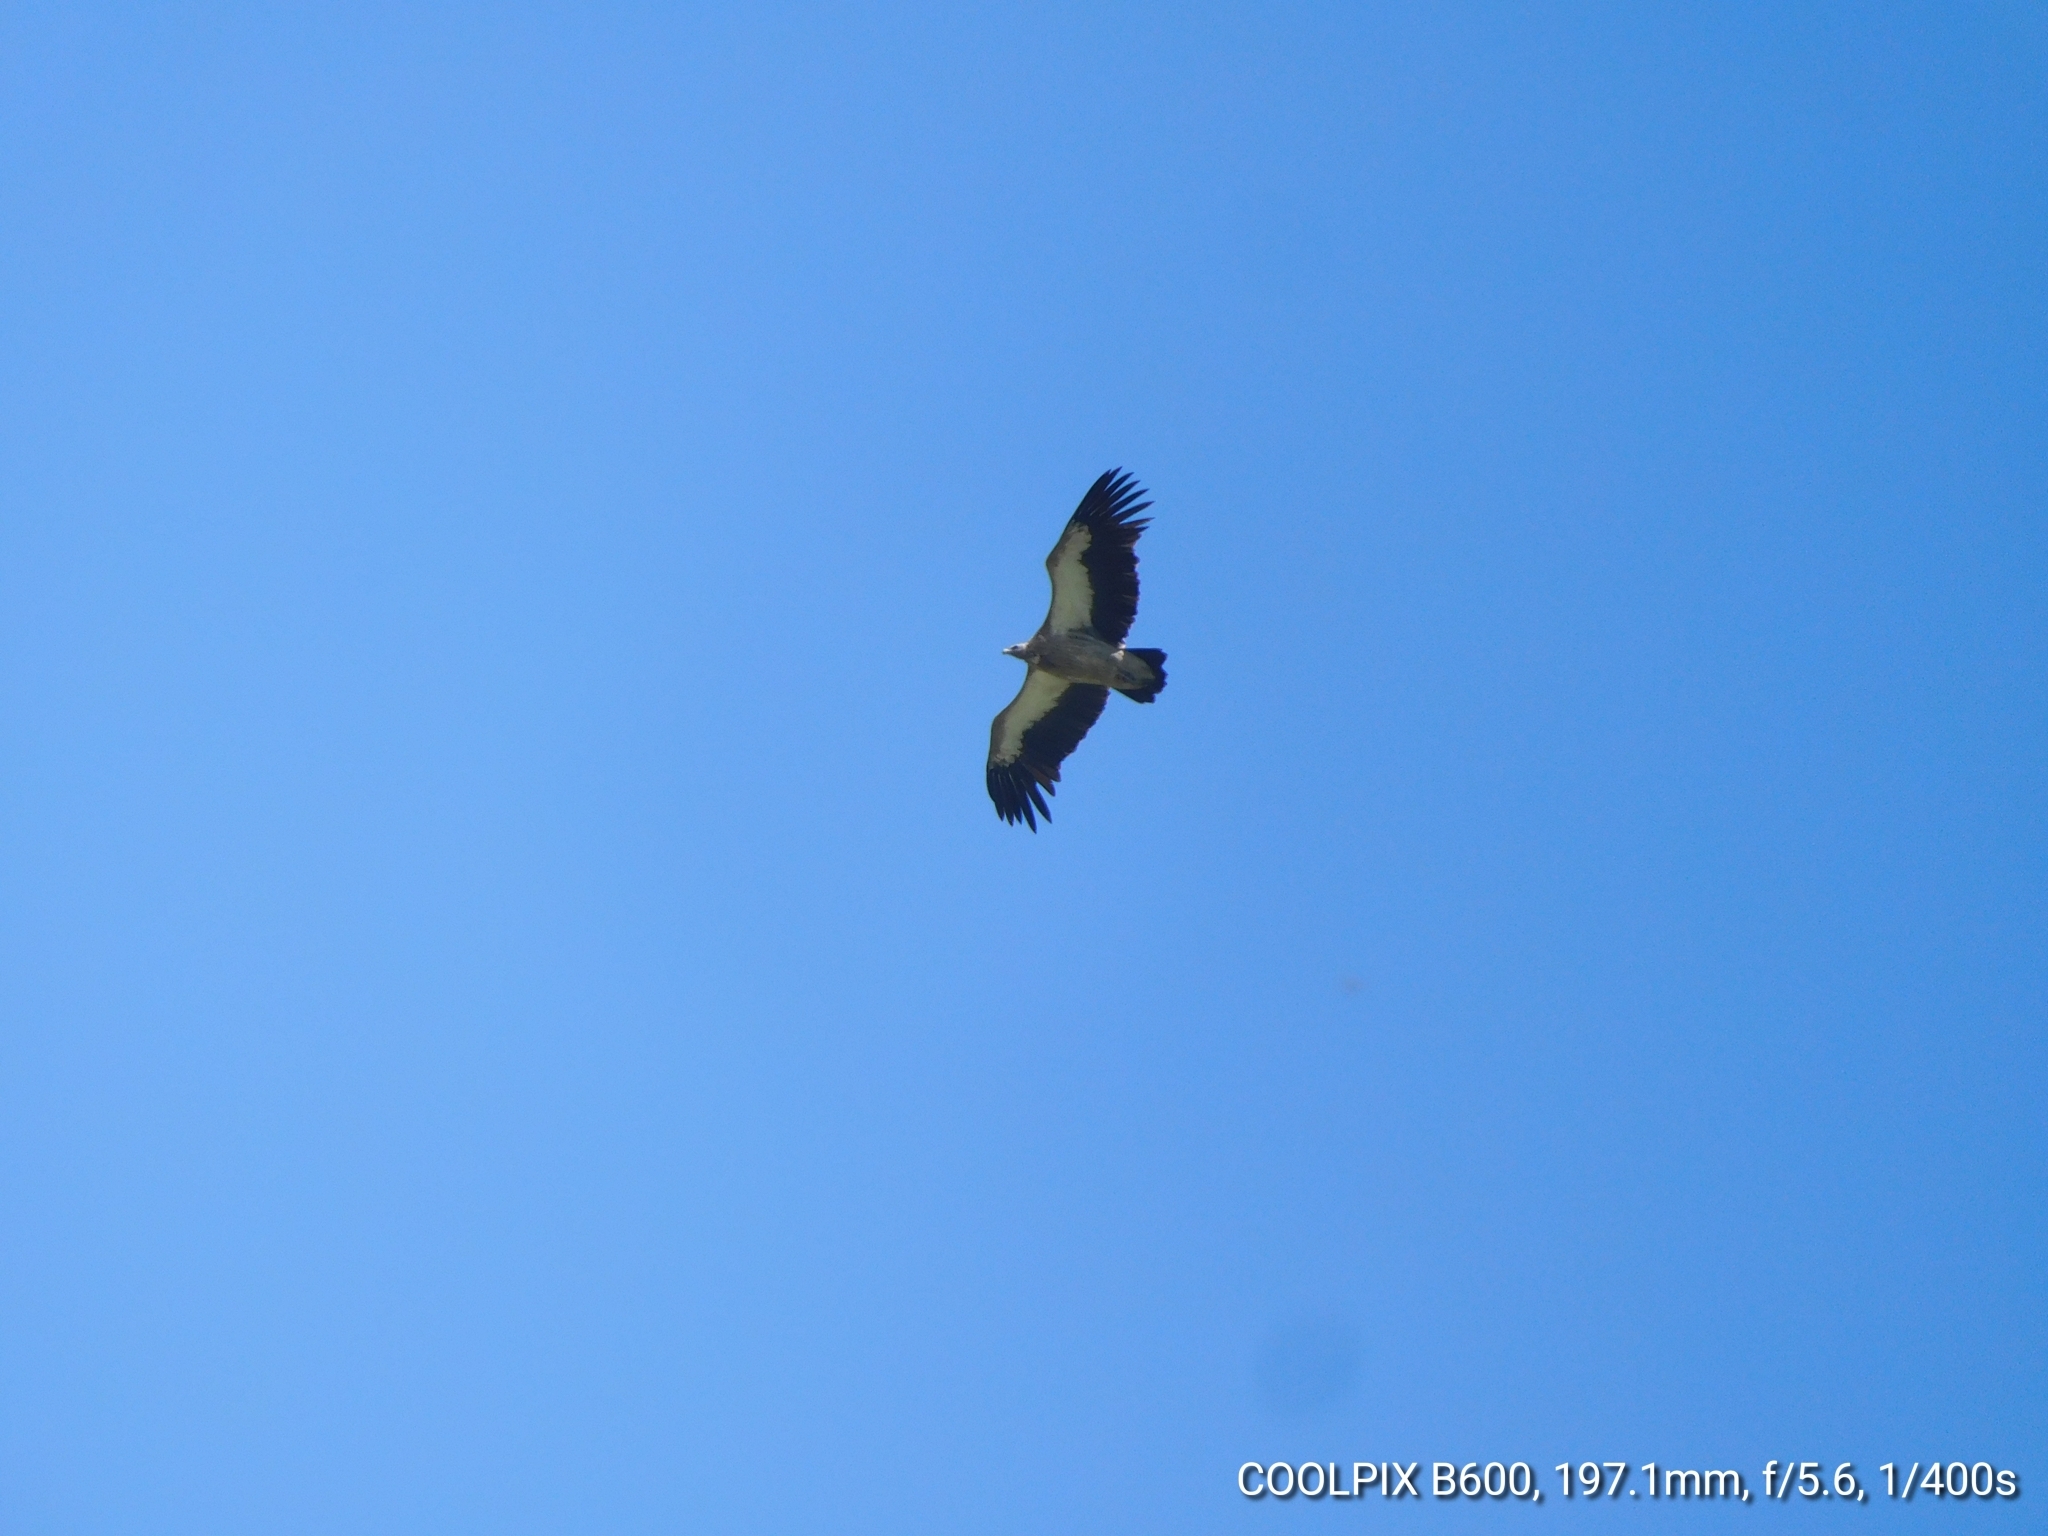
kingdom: Animalia
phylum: Chordata
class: Aves
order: Accipitriformes
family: Accipitridae
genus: Gyps
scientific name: Gyps himalayensis
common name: Himalayan griffon
